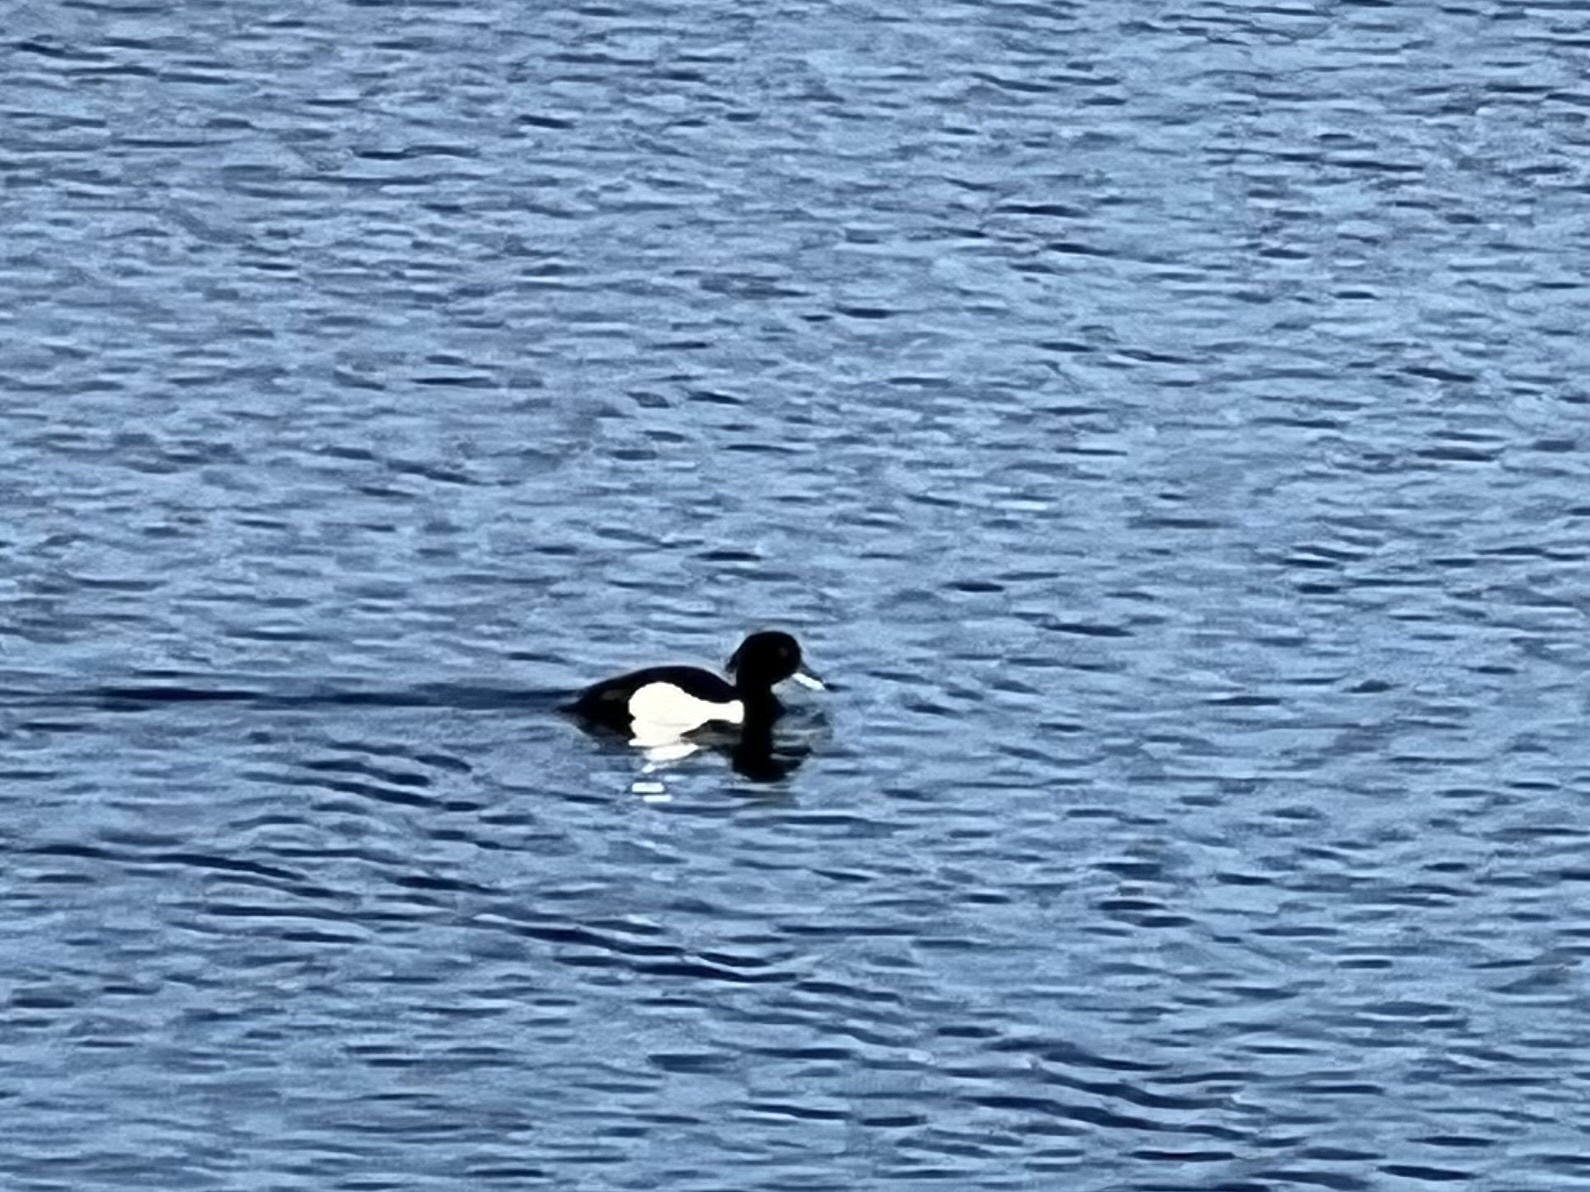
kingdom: Animalia
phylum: Chordata
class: Aves
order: Anseriformes
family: Anatidae
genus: Aythya
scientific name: Aythya fuligula
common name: Tufted duck
